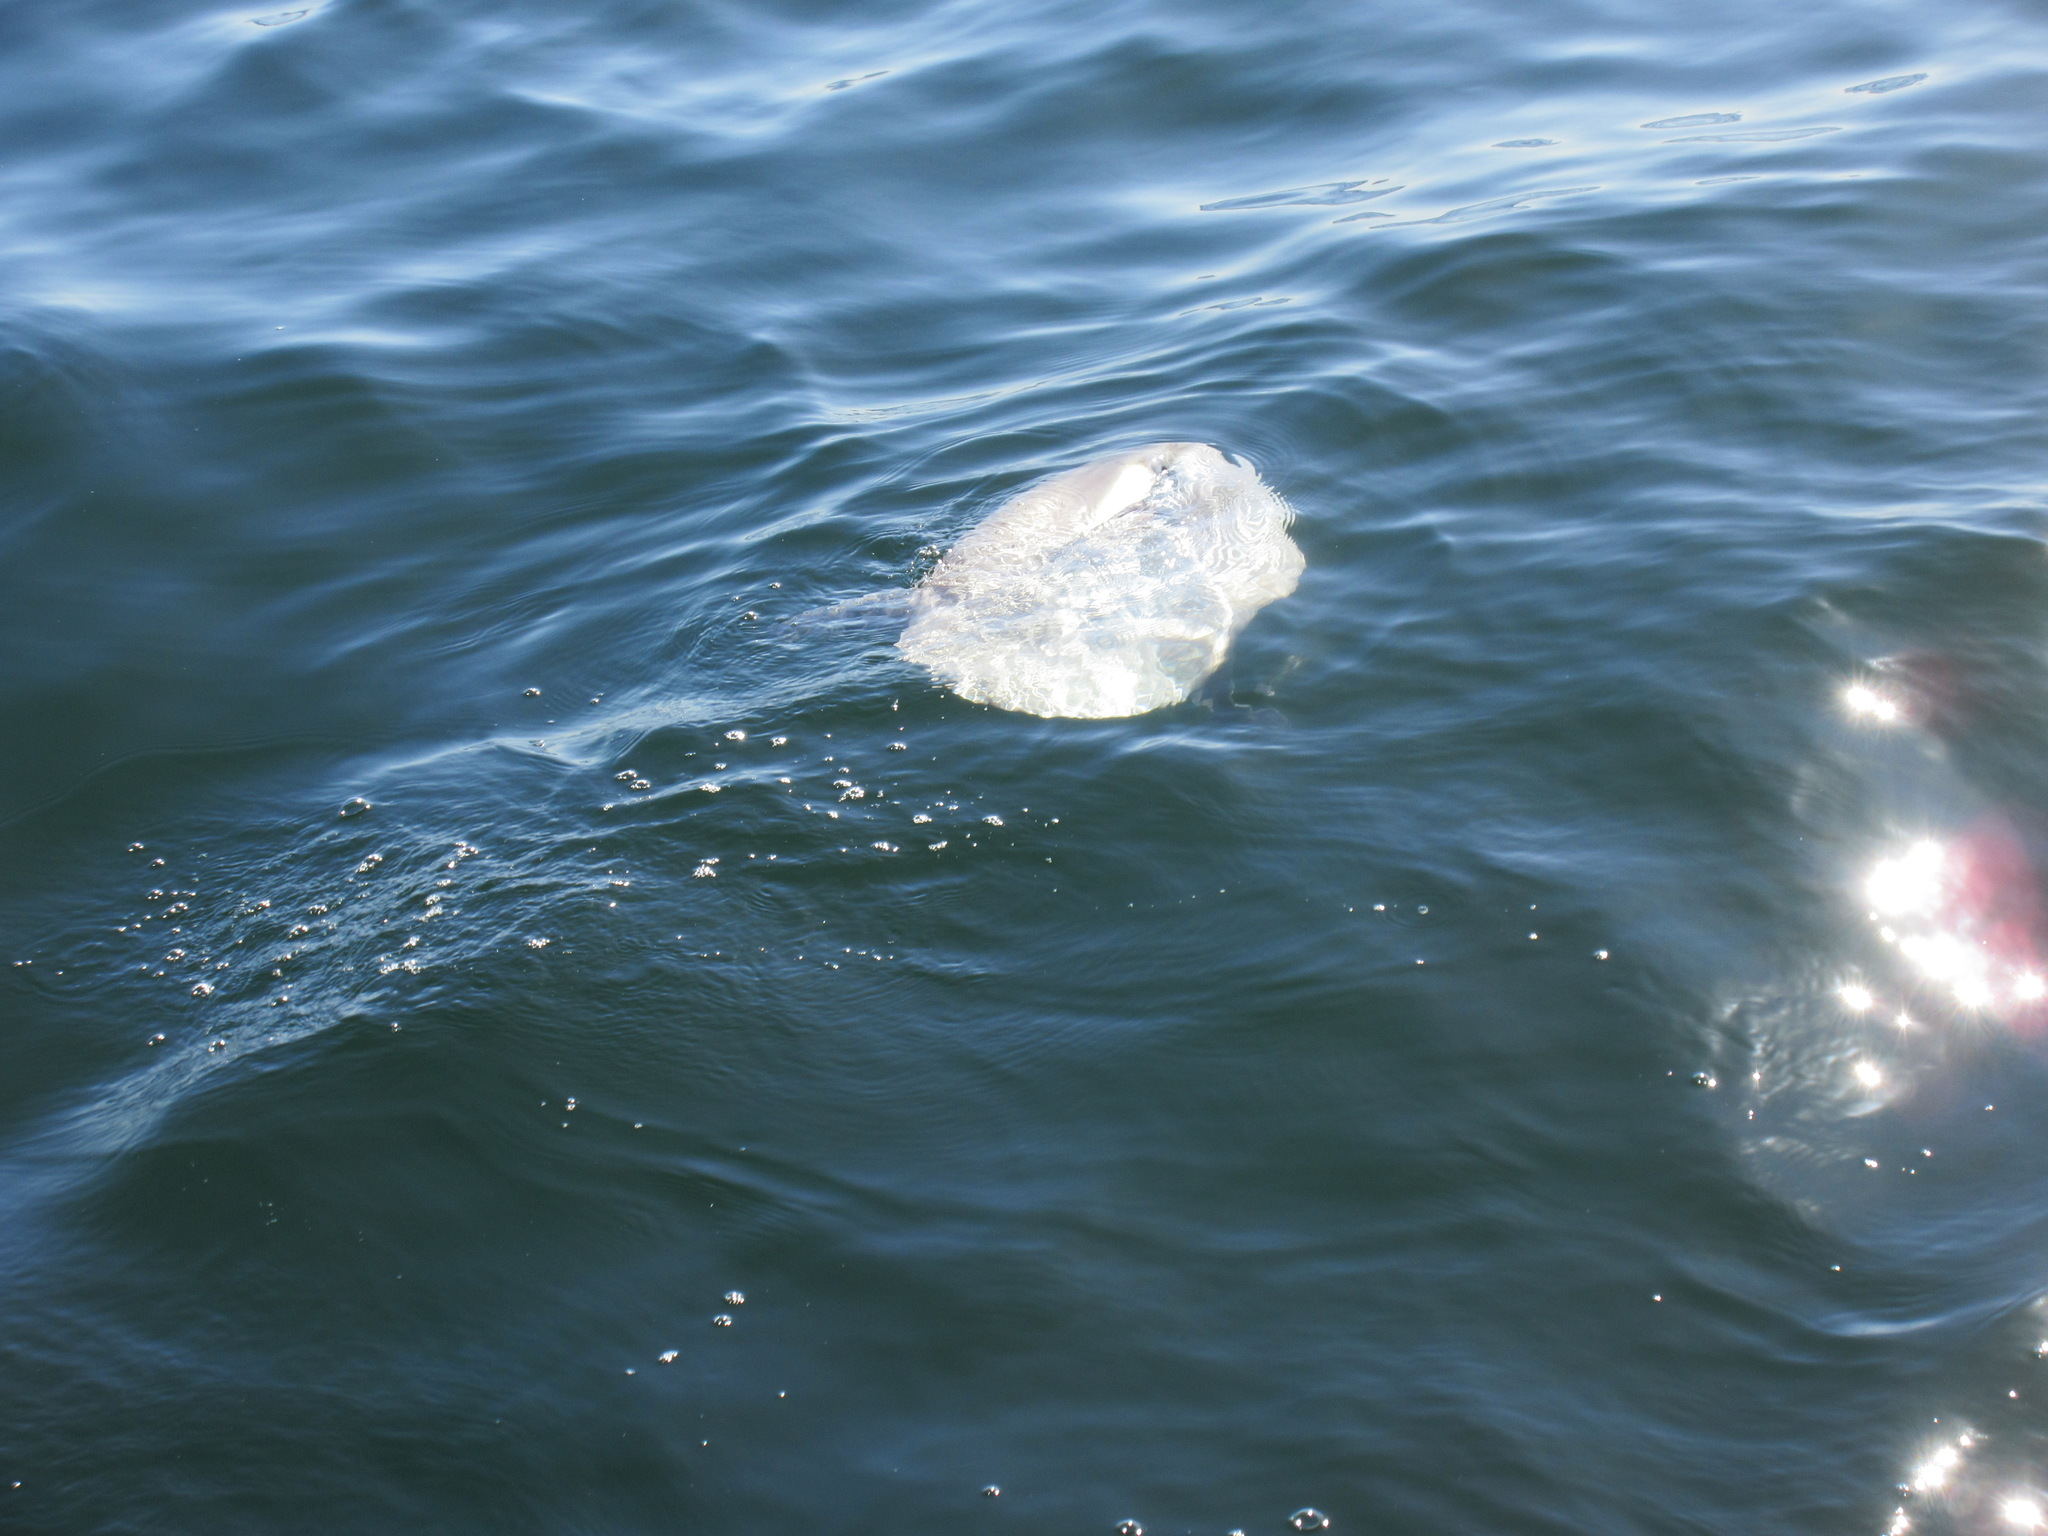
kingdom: Animalia
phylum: Chordata
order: Tetraodontiformes
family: Molidae
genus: Mola
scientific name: Mola mola
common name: Ocean sunfish
